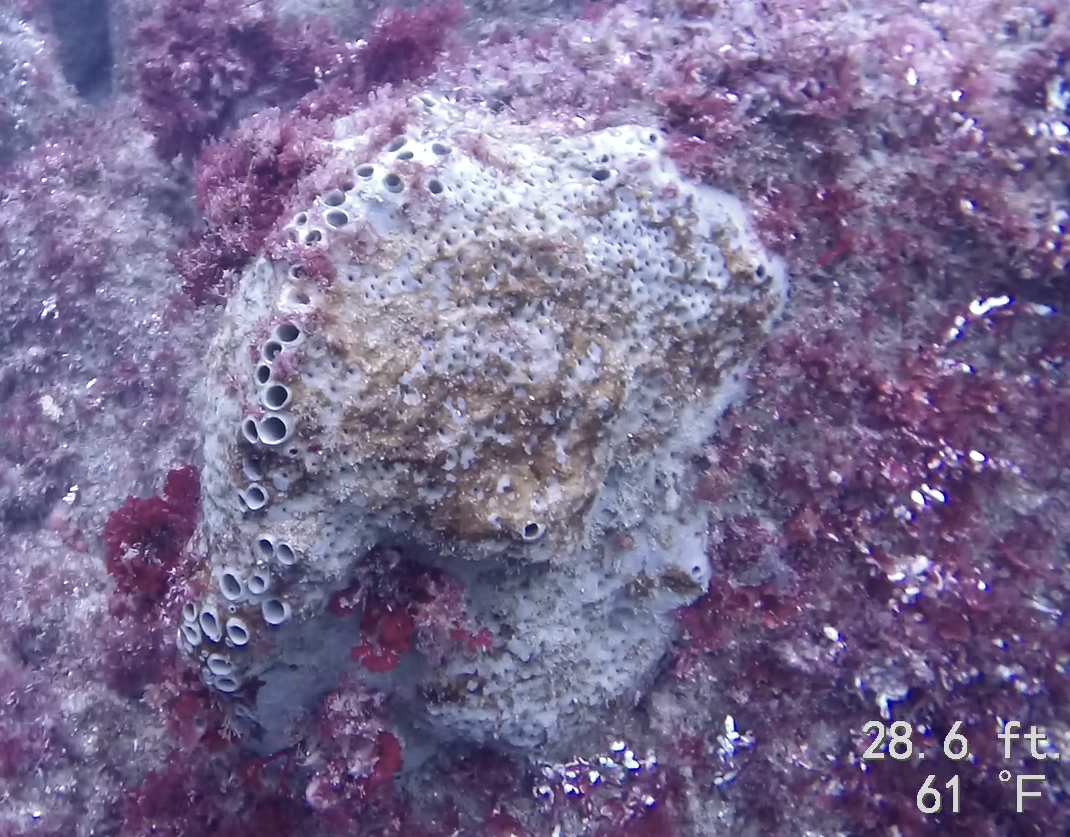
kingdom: Animalia
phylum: Porifera
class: Demospongiae
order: Clionaida
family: Clionaidae
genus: Spheciospongia
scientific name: Spheciospongia confoederata
